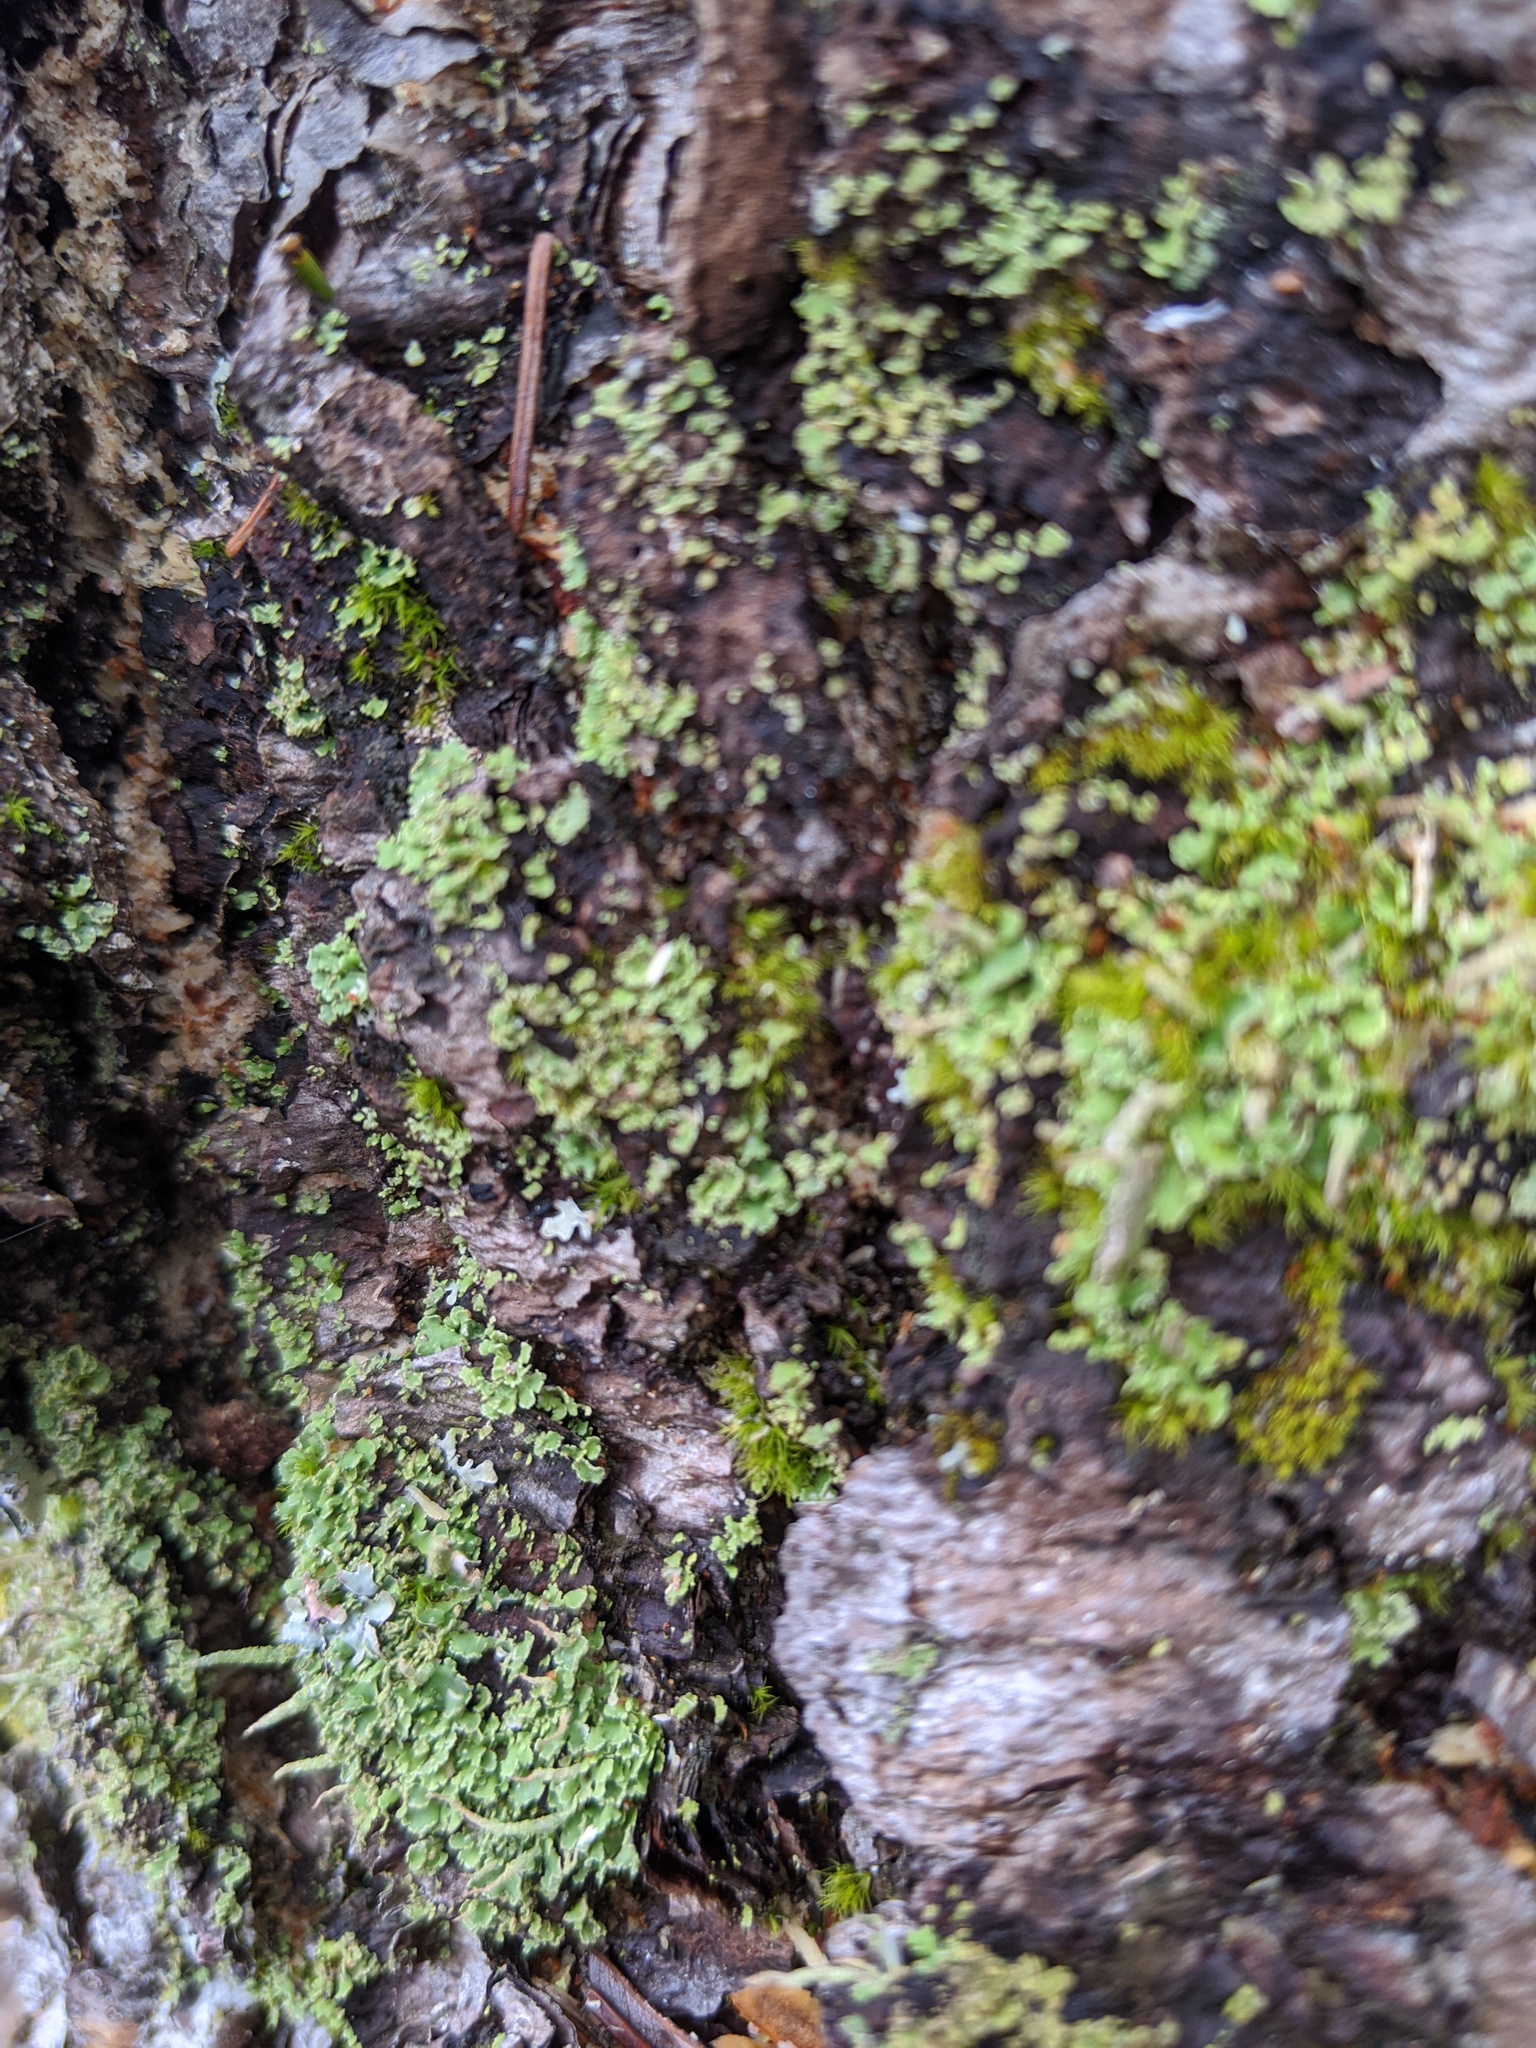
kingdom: Fungi
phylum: Ascomycota
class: Lecanoromycetes
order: Lecanorales
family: Cladoniaceae
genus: Cladonia
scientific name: Cladonia coniocraea
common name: Common powderhorn
